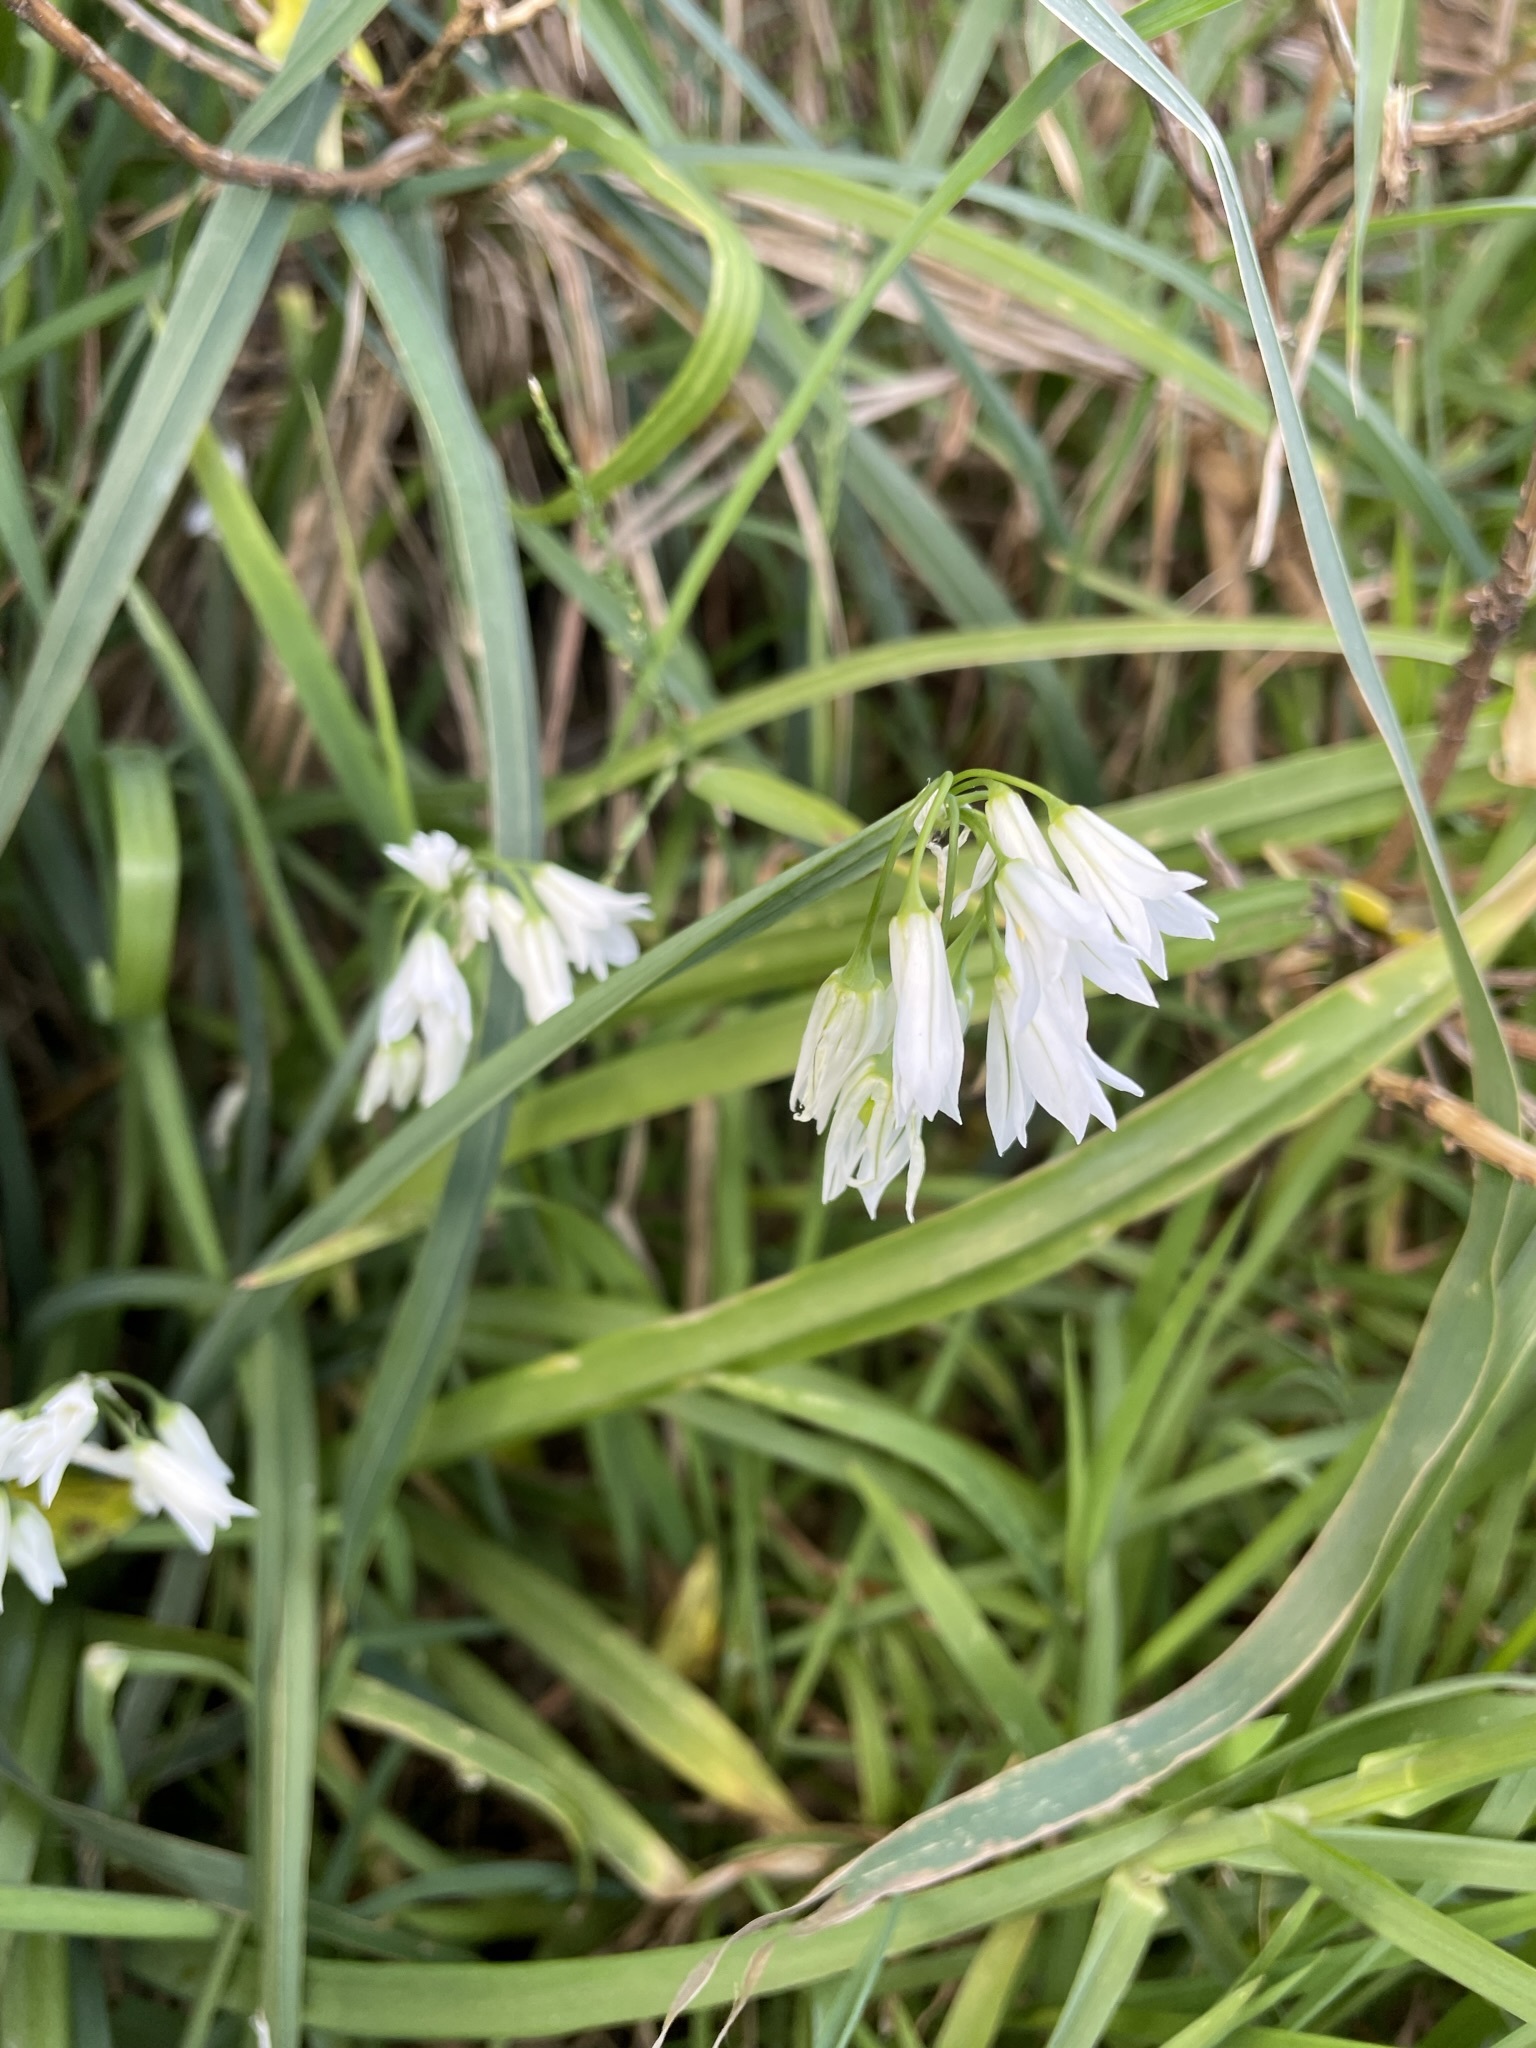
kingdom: Plantae
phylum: Tracheophyta
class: Liliopsida
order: Asparagales
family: Amaryllidaceae
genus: Allium
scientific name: Allium triquetrum
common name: Three-cornered garlic
